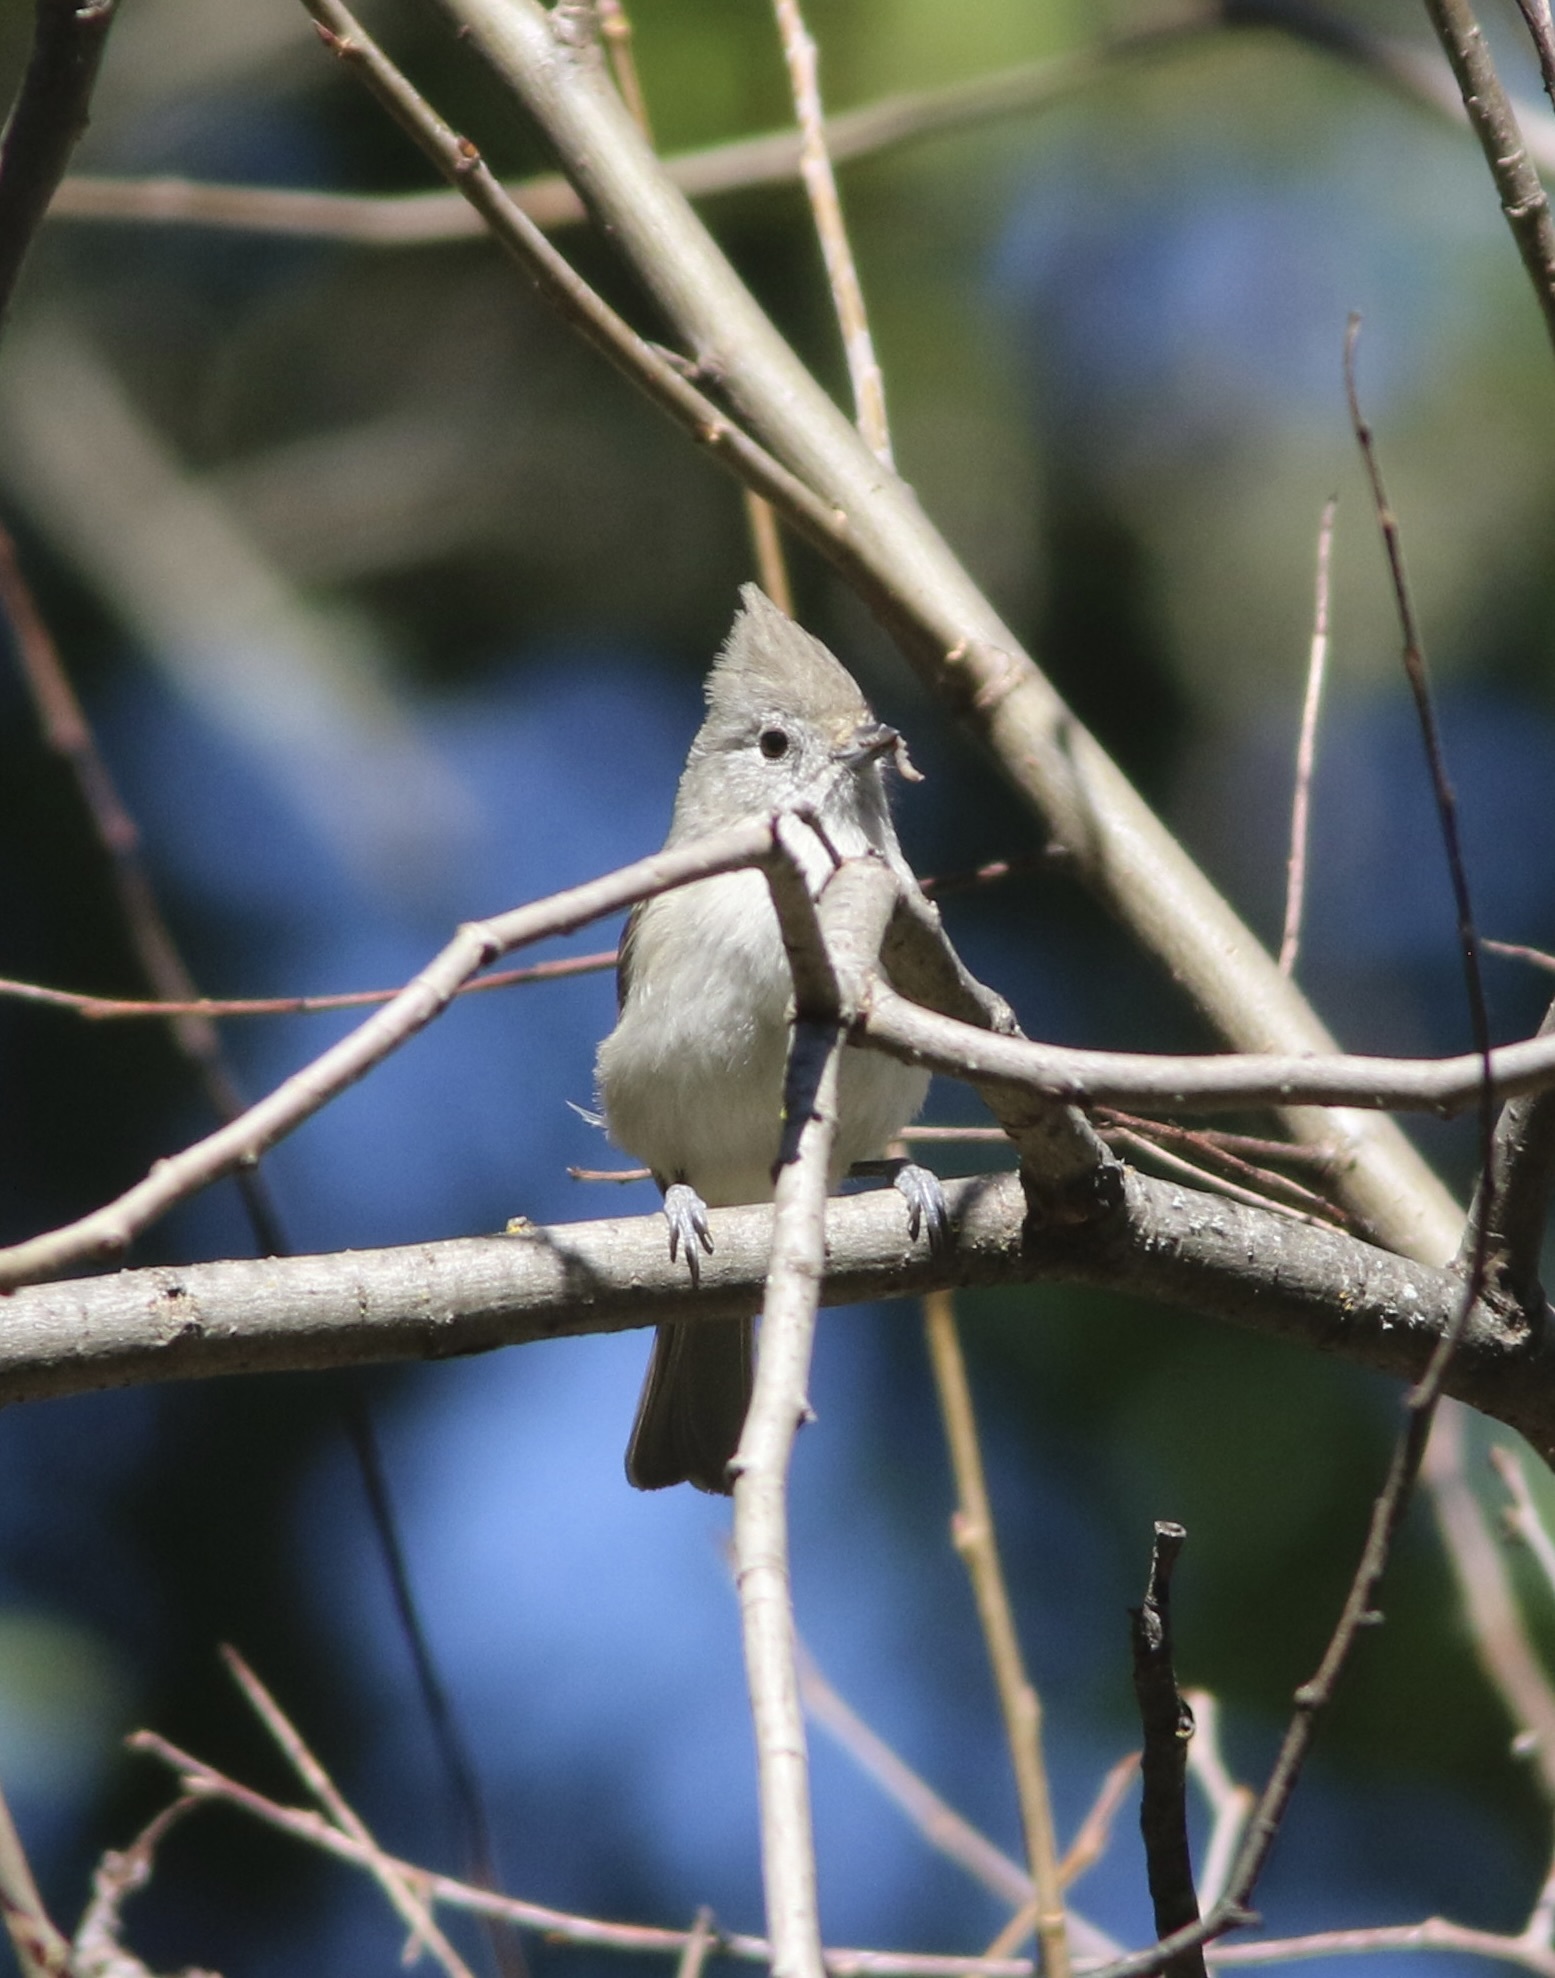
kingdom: Animalia
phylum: Chordata
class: Aves
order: Passeriformes
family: Paridae
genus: Baeolophus
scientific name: Baeolophus inornatus
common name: Oak titmouse
